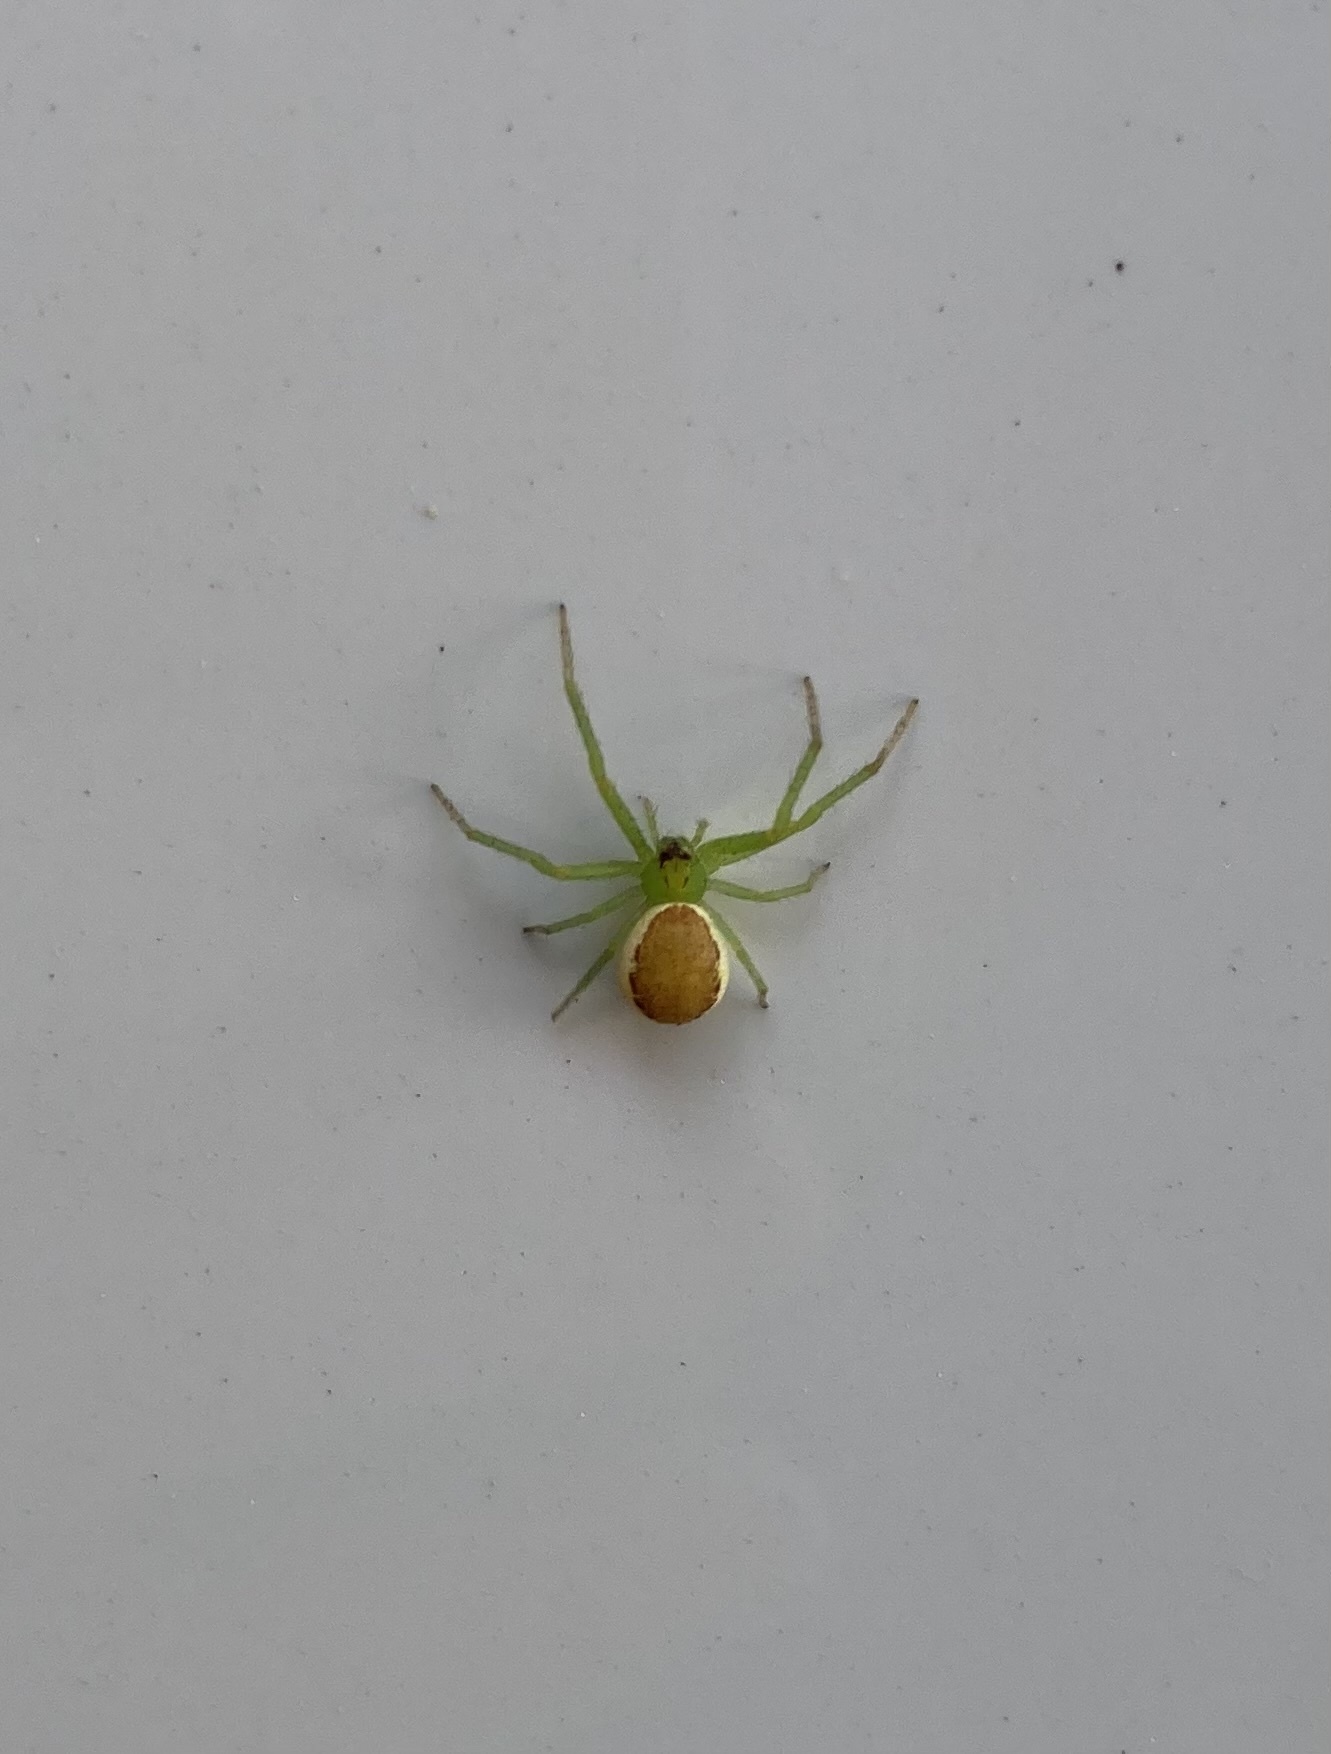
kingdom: Animalia
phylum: Arthropoda
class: Arachnida
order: Araneae
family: Thomisidae
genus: Diaea
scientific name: Diaea dorsata
